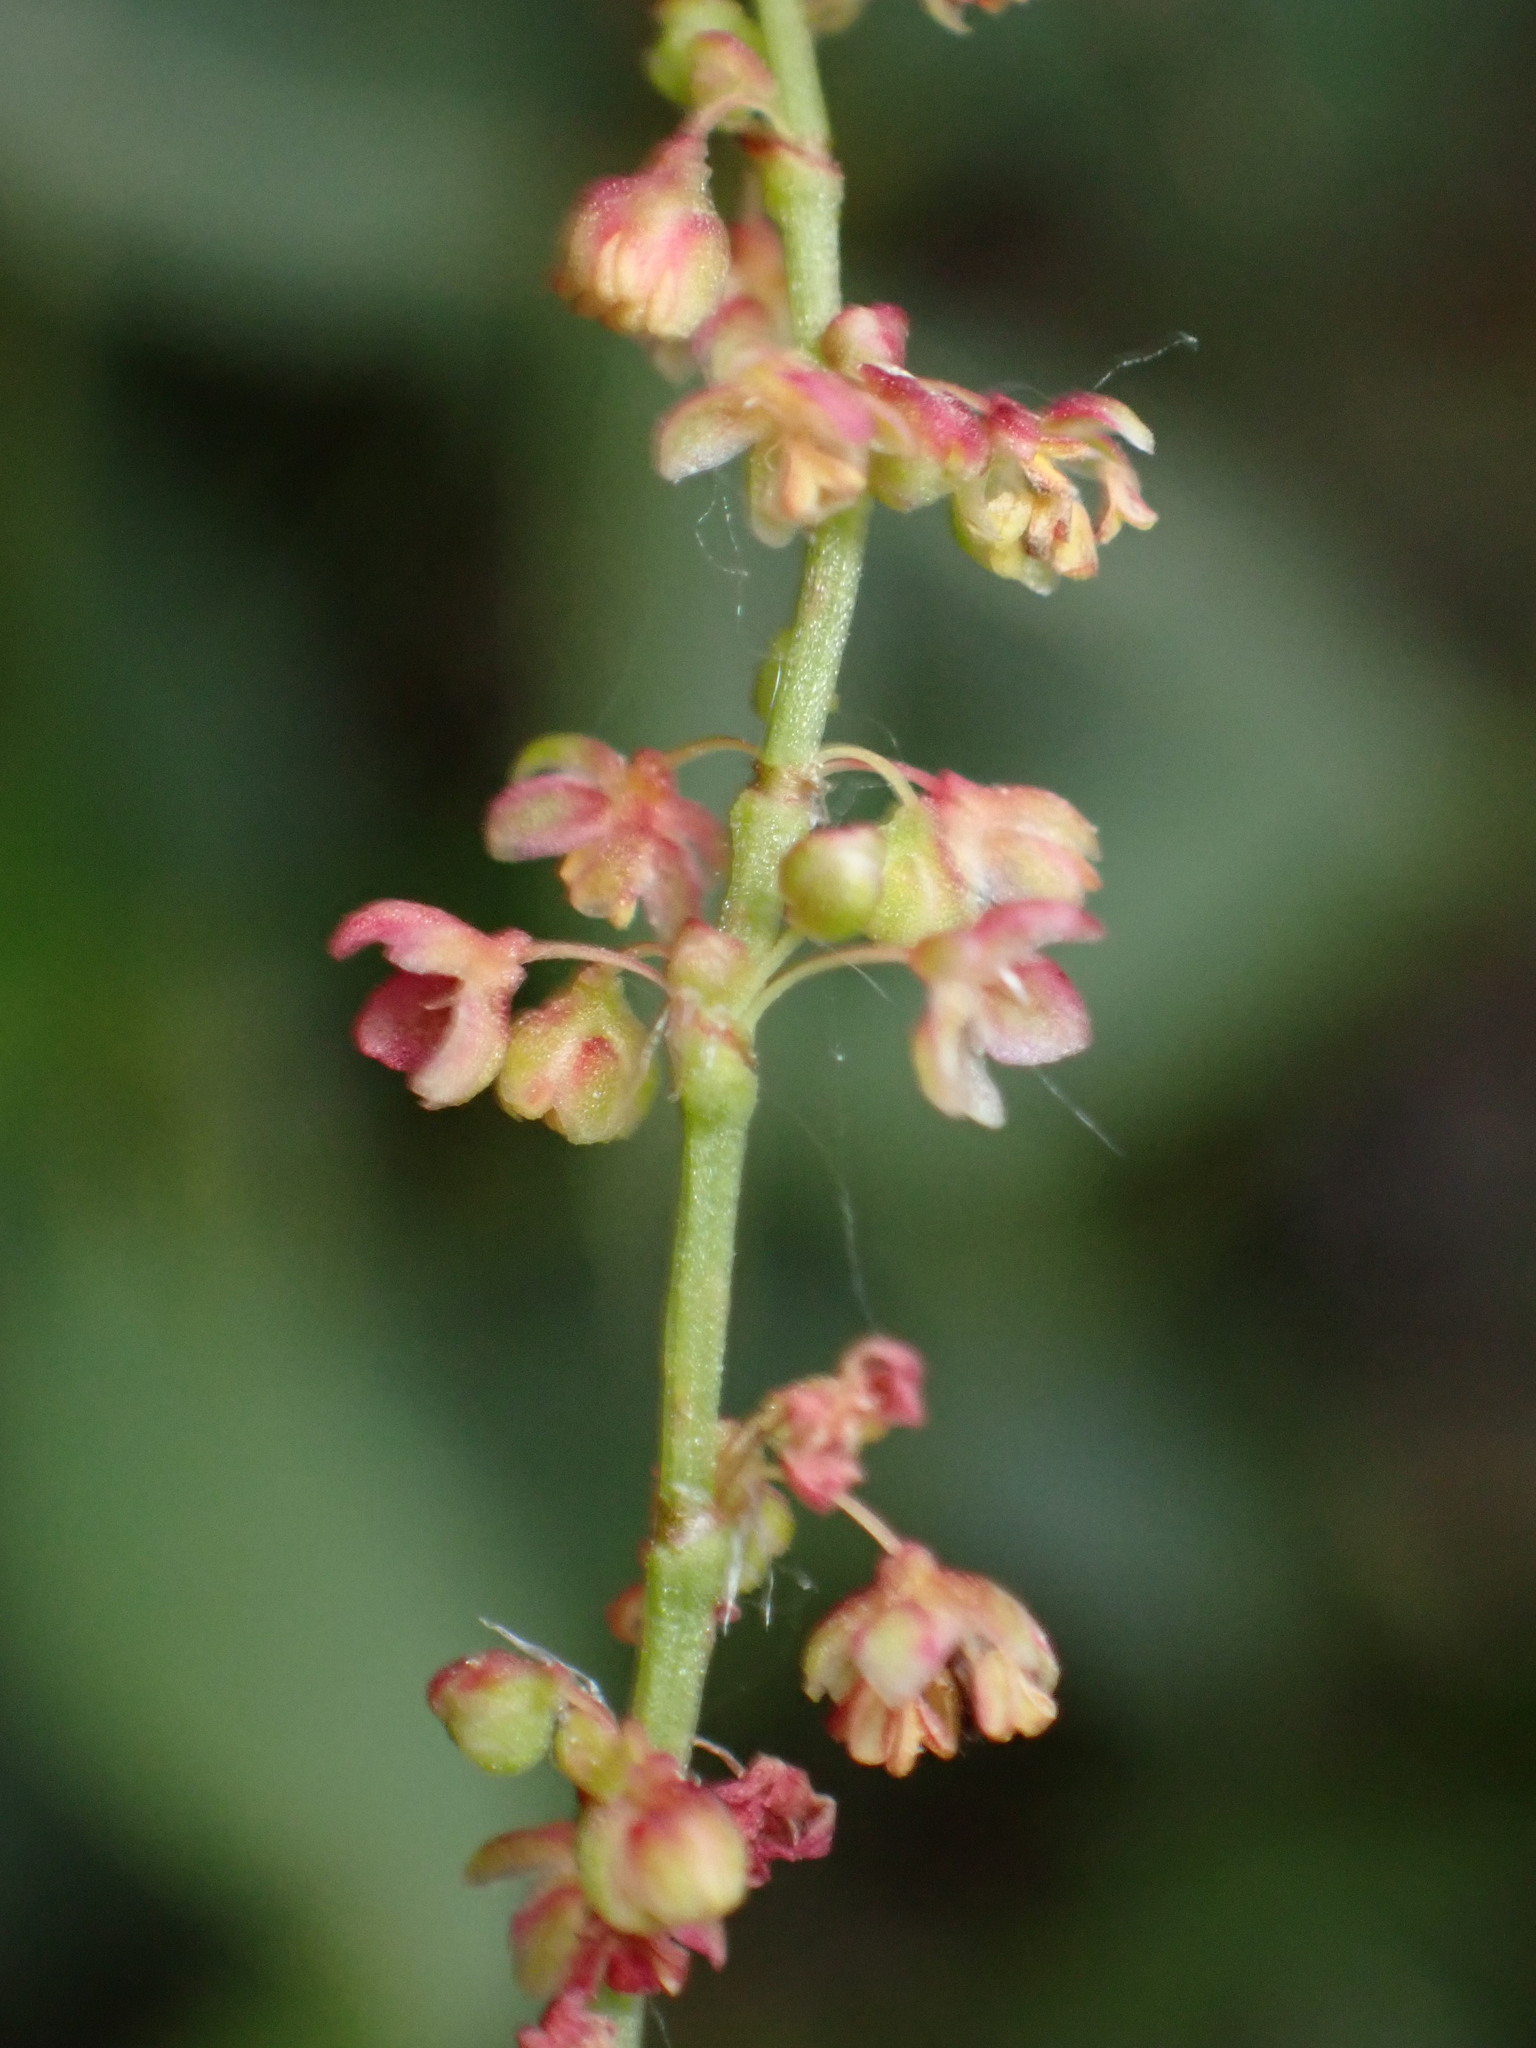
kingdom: Plantae
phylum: Tracheophyta
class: Magnoliopsida
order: Caryophyllales
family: Polygonaceae
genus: Rumex
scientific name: Rumex acetosella
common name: Common sheep sorrel
